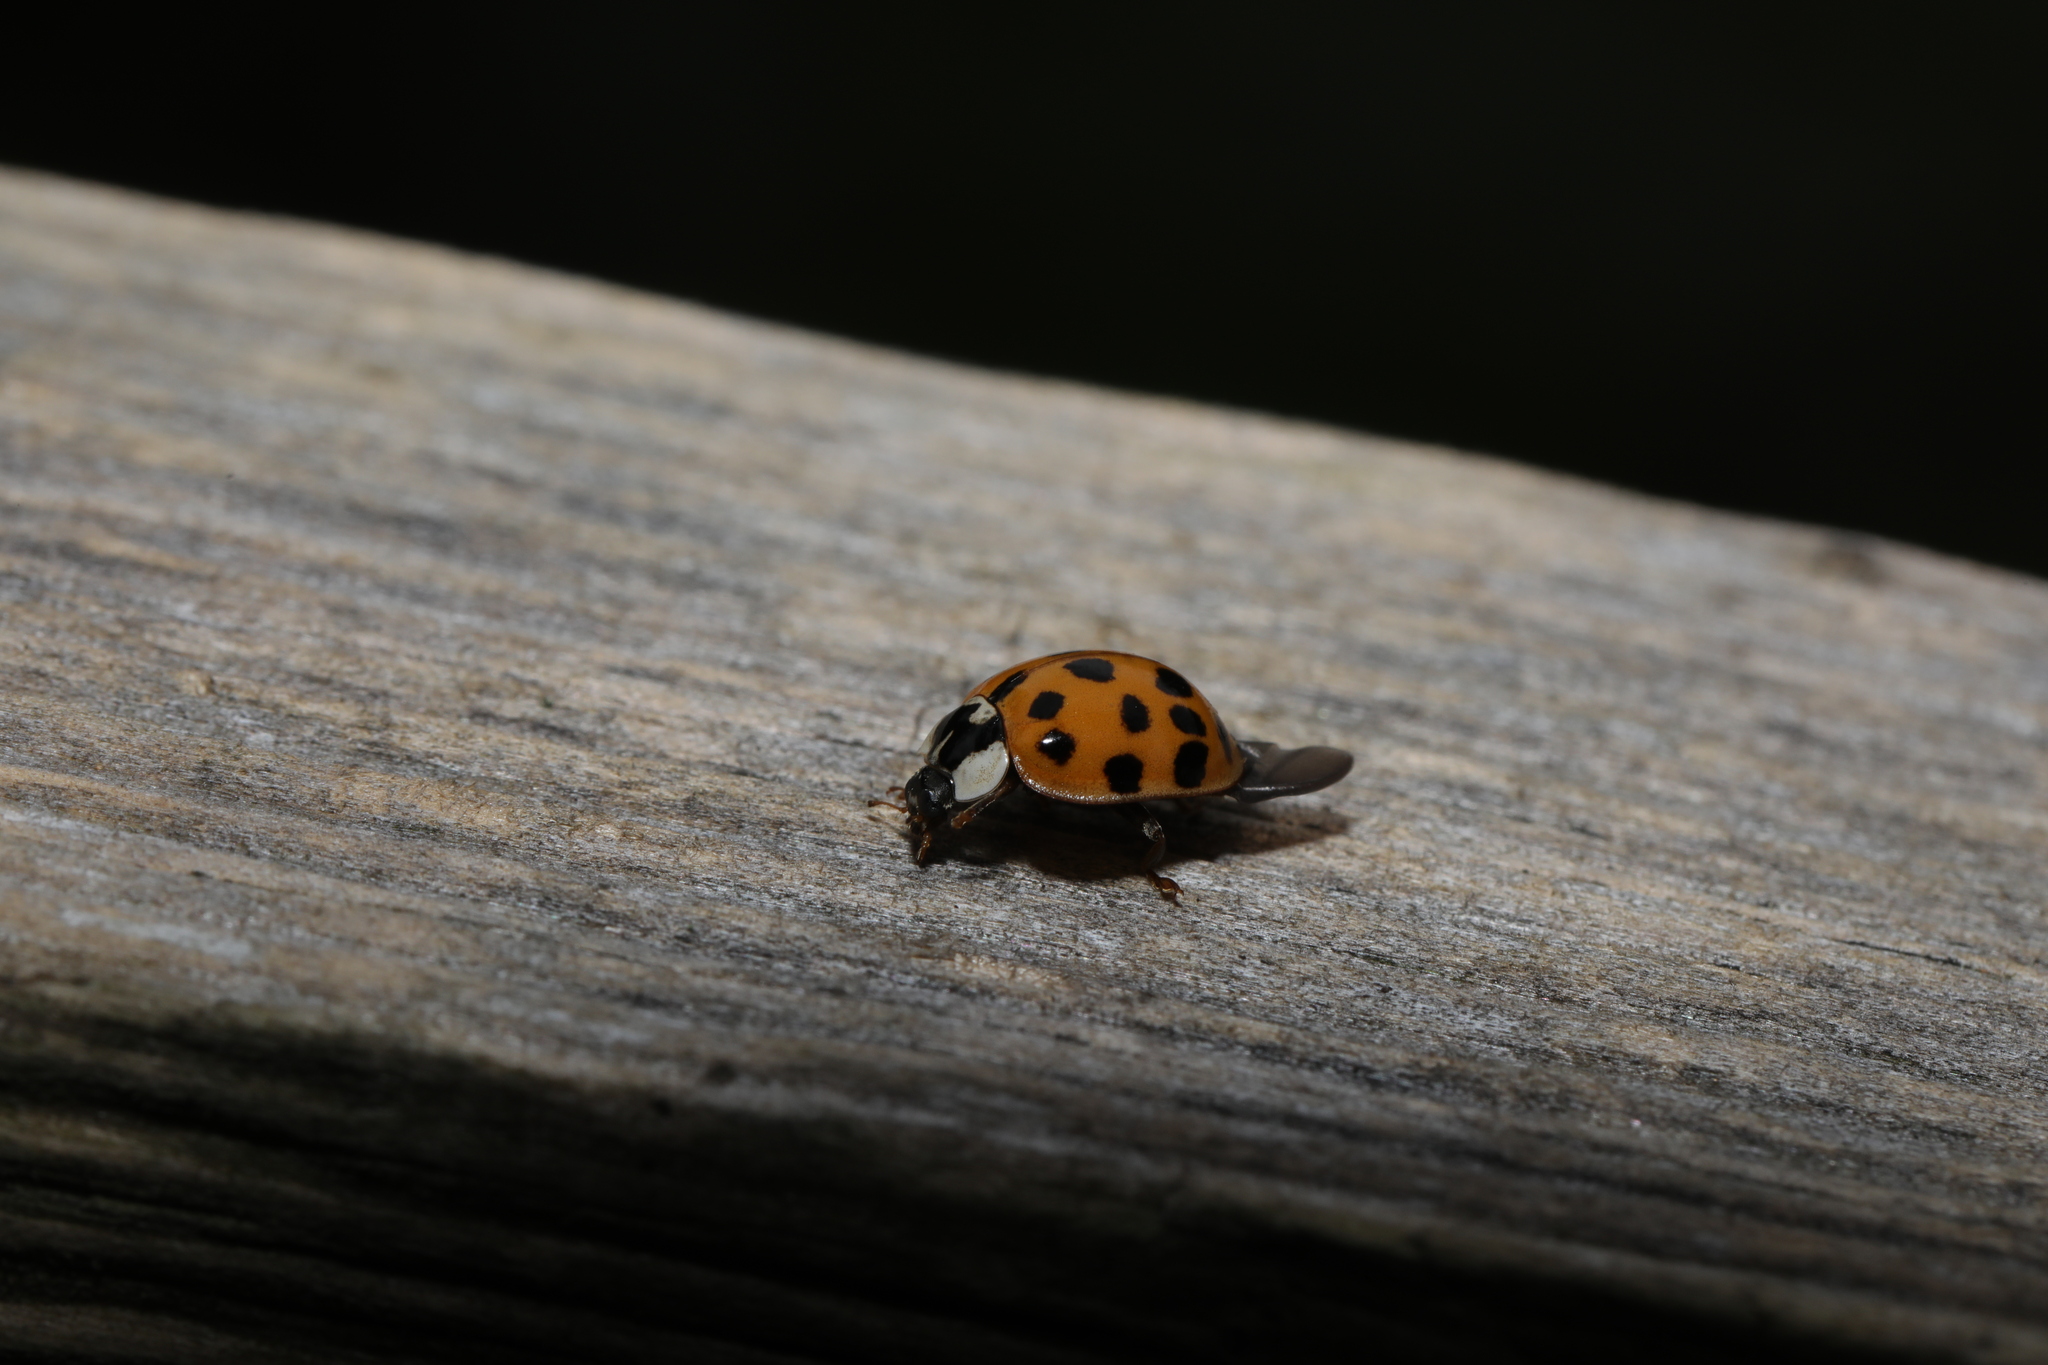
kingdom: Animalia
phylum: Arthropoda
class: Insecta
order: Coleoptera
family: Coccinellidae
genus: Harmonia
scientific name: Harmonia axyridis
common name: Harlequin ladybird
